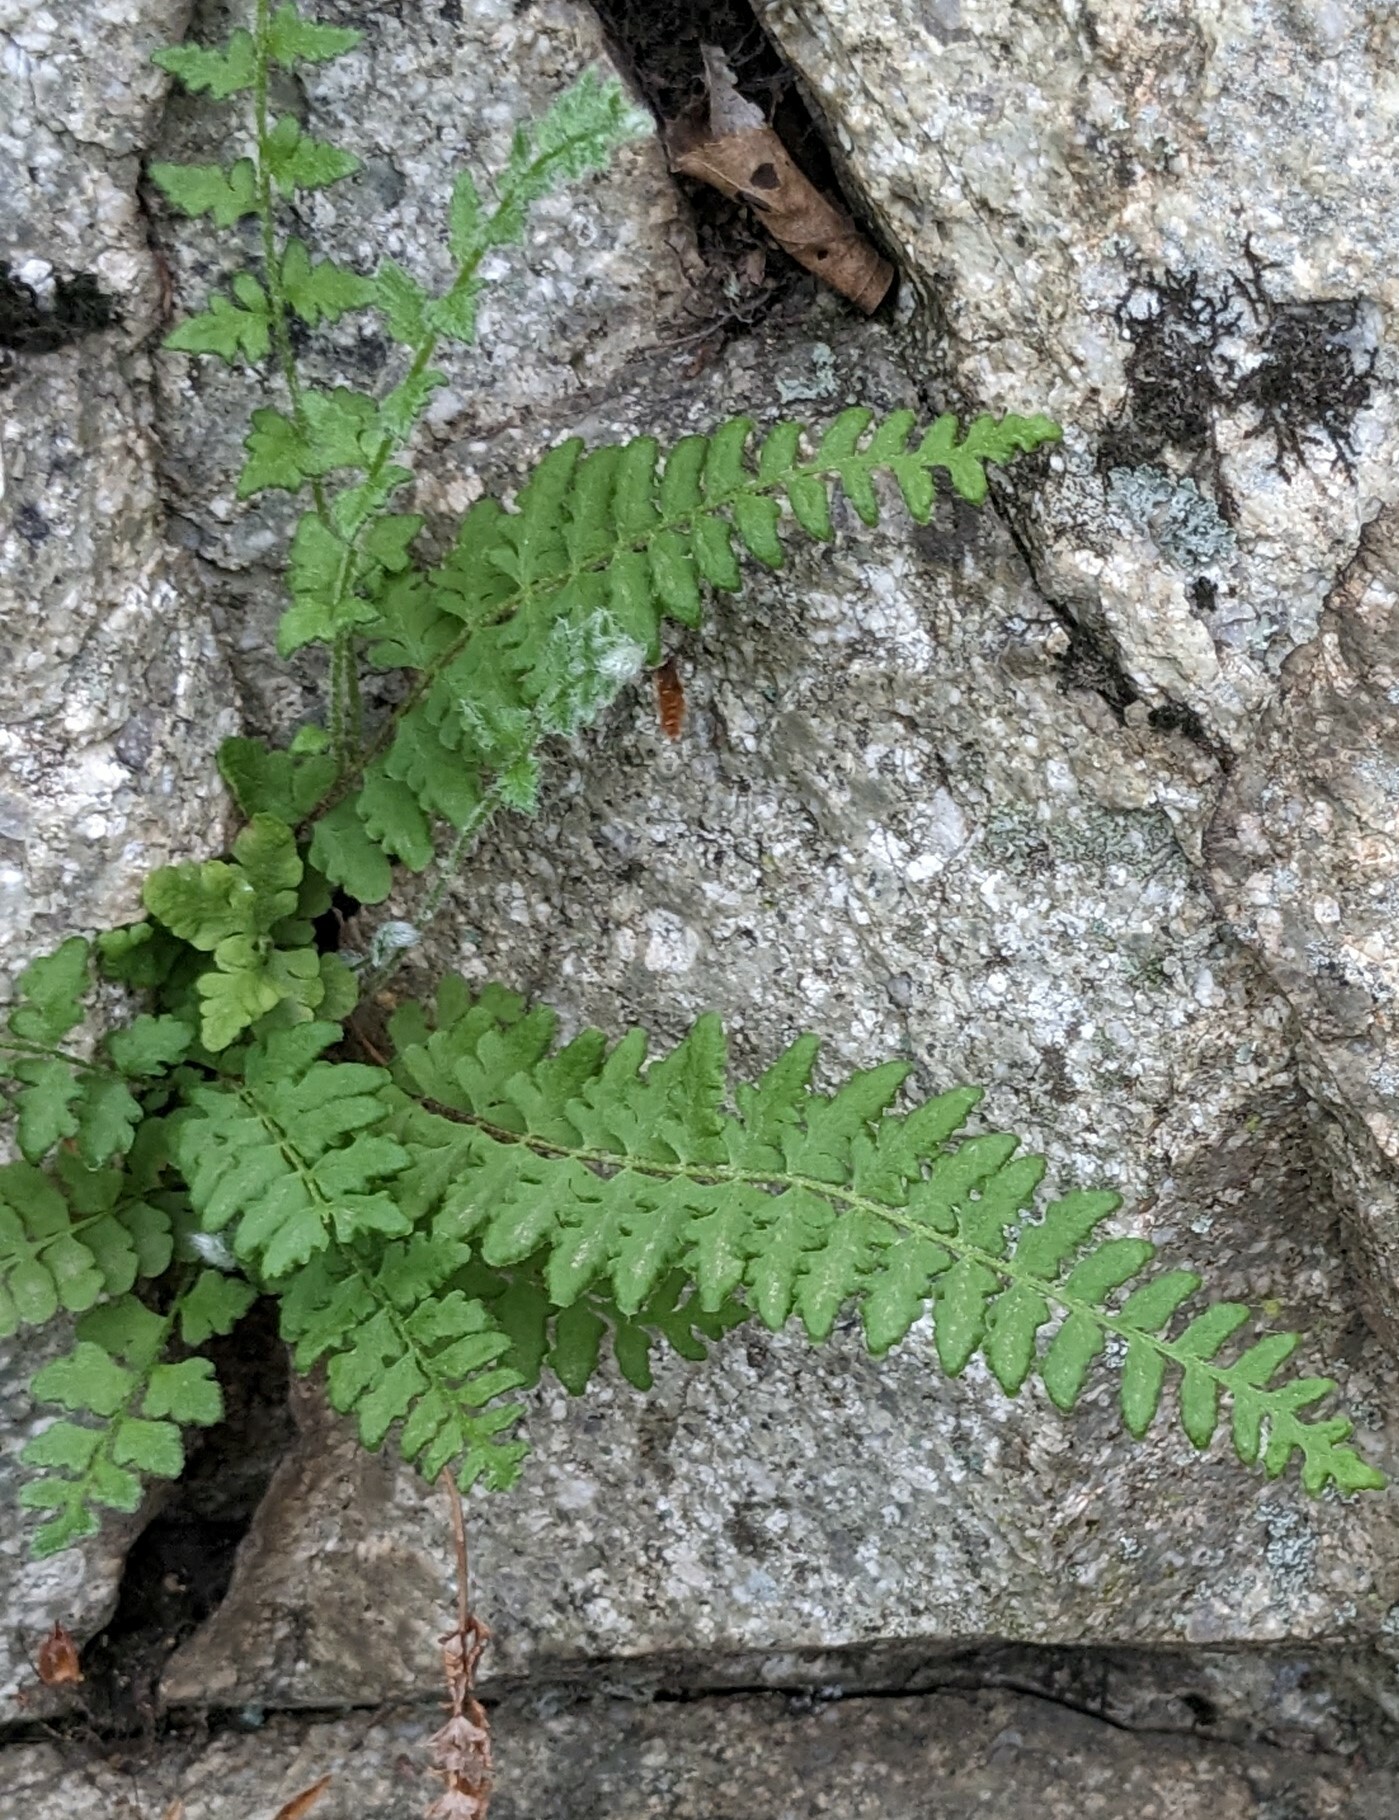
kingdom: Plantae
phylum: Tracheophyta
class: Polypodiopsida
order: Polypodiales
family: Woodsiaceae
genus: Woodsia
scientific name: Woodsia subcordata
